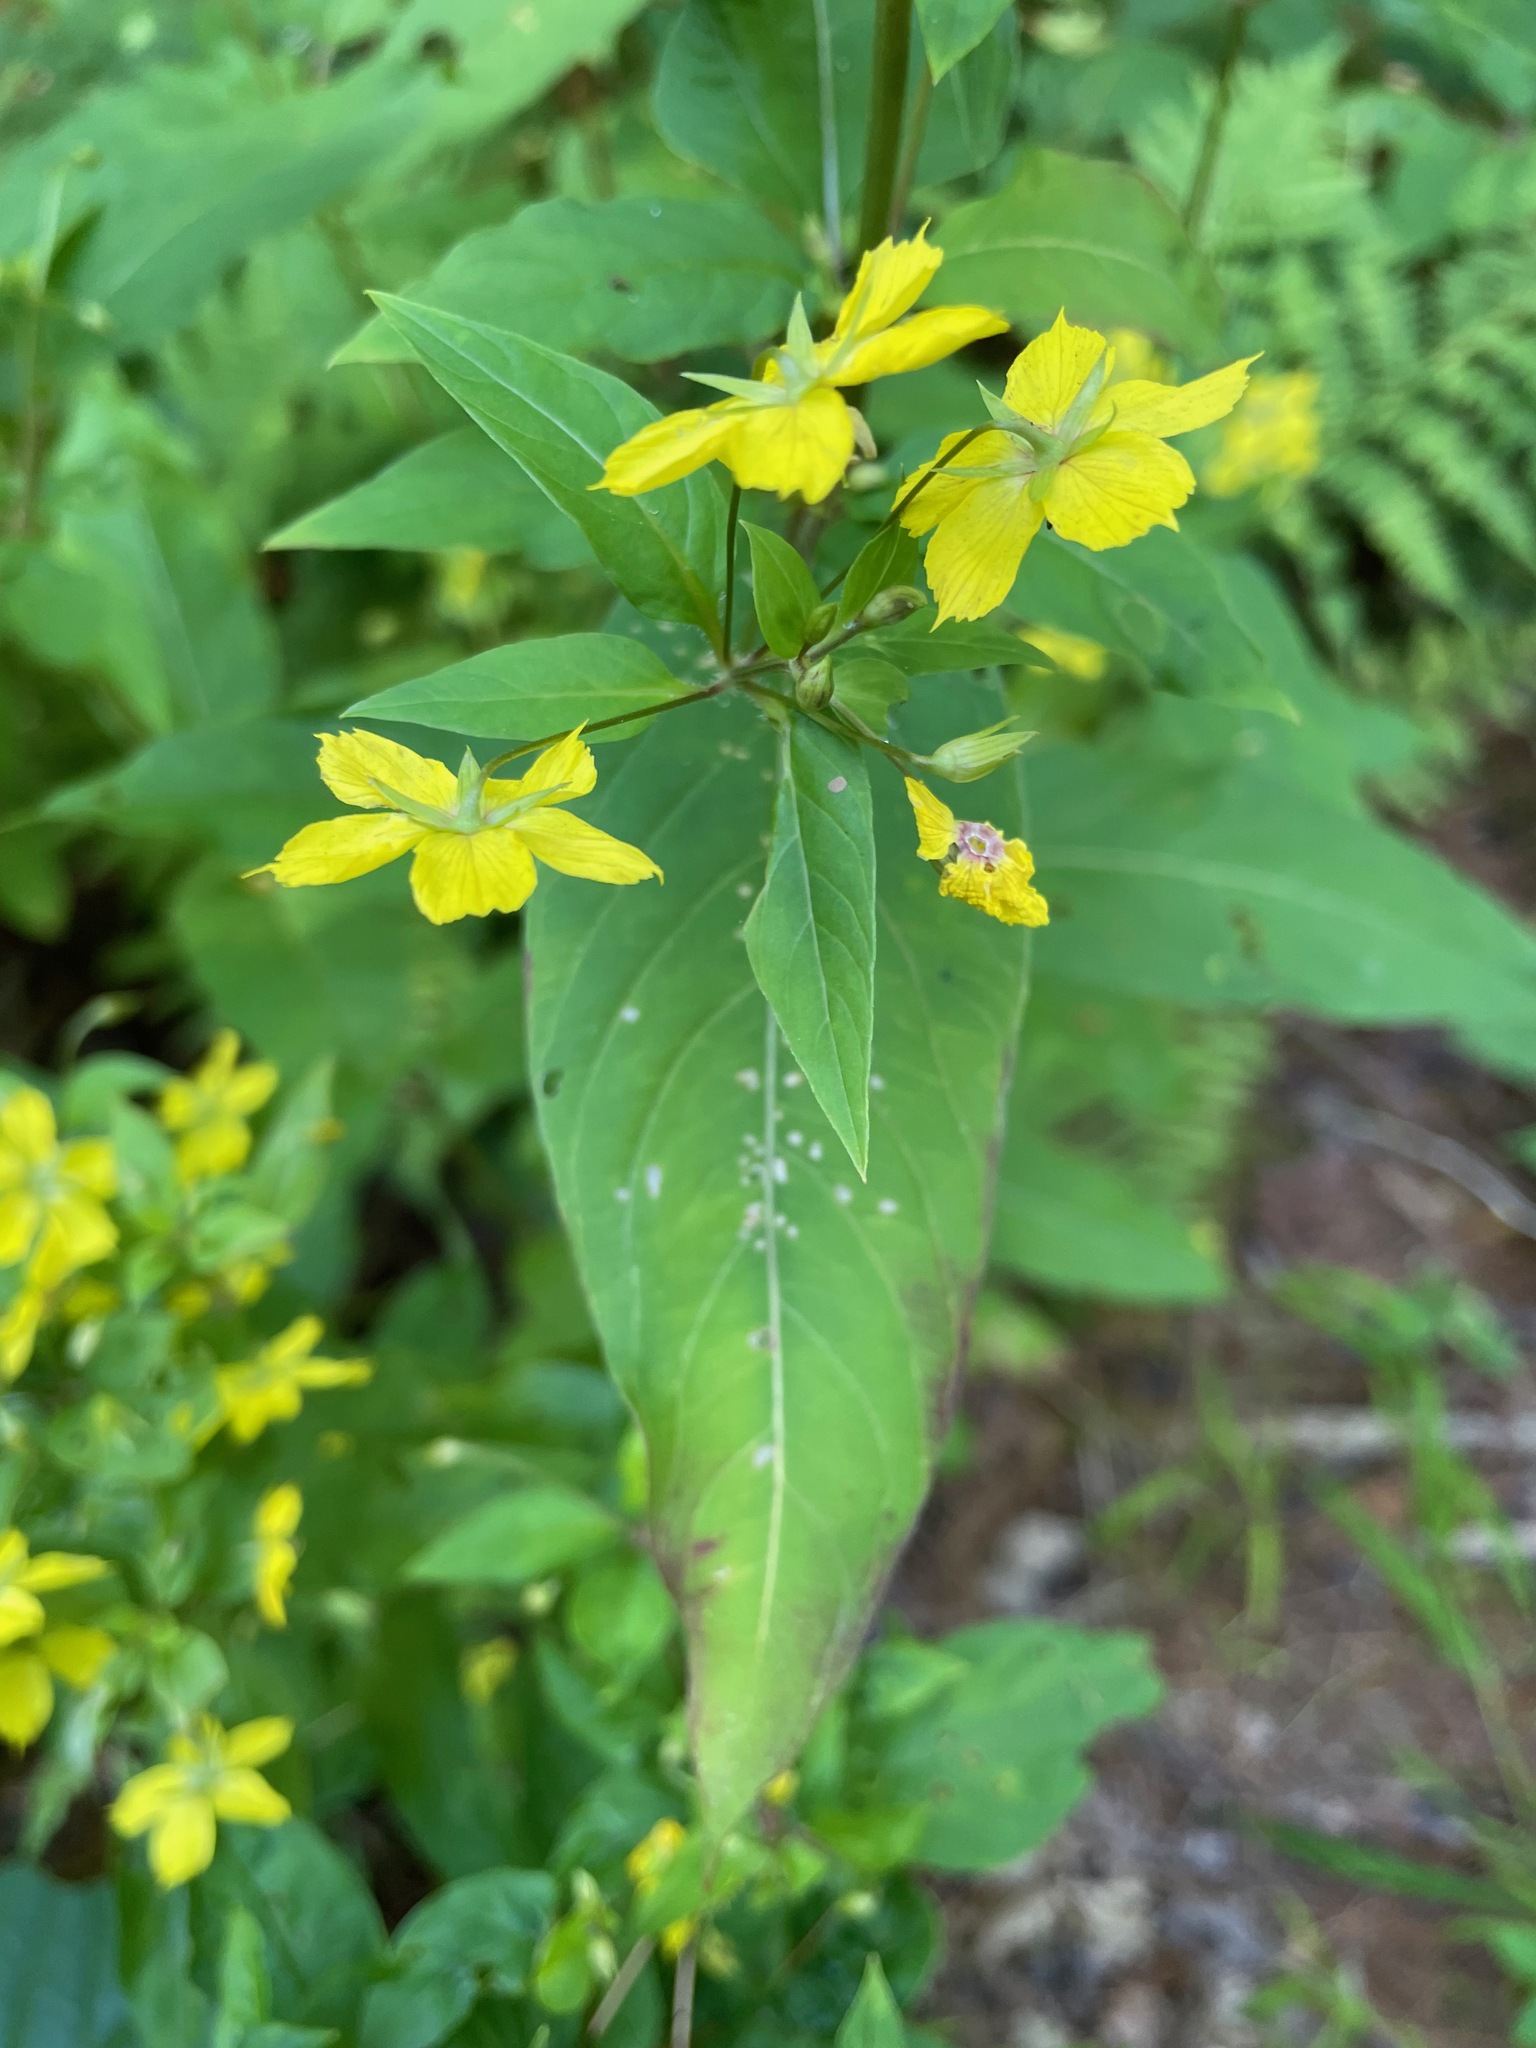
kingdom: Plantae
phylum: Tracheophyta
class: Magnoliopsida
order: Ericales
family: Primulaceae
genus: Lysimachia
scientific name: Lysimachia ciliata
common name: Fringed loosestrife
